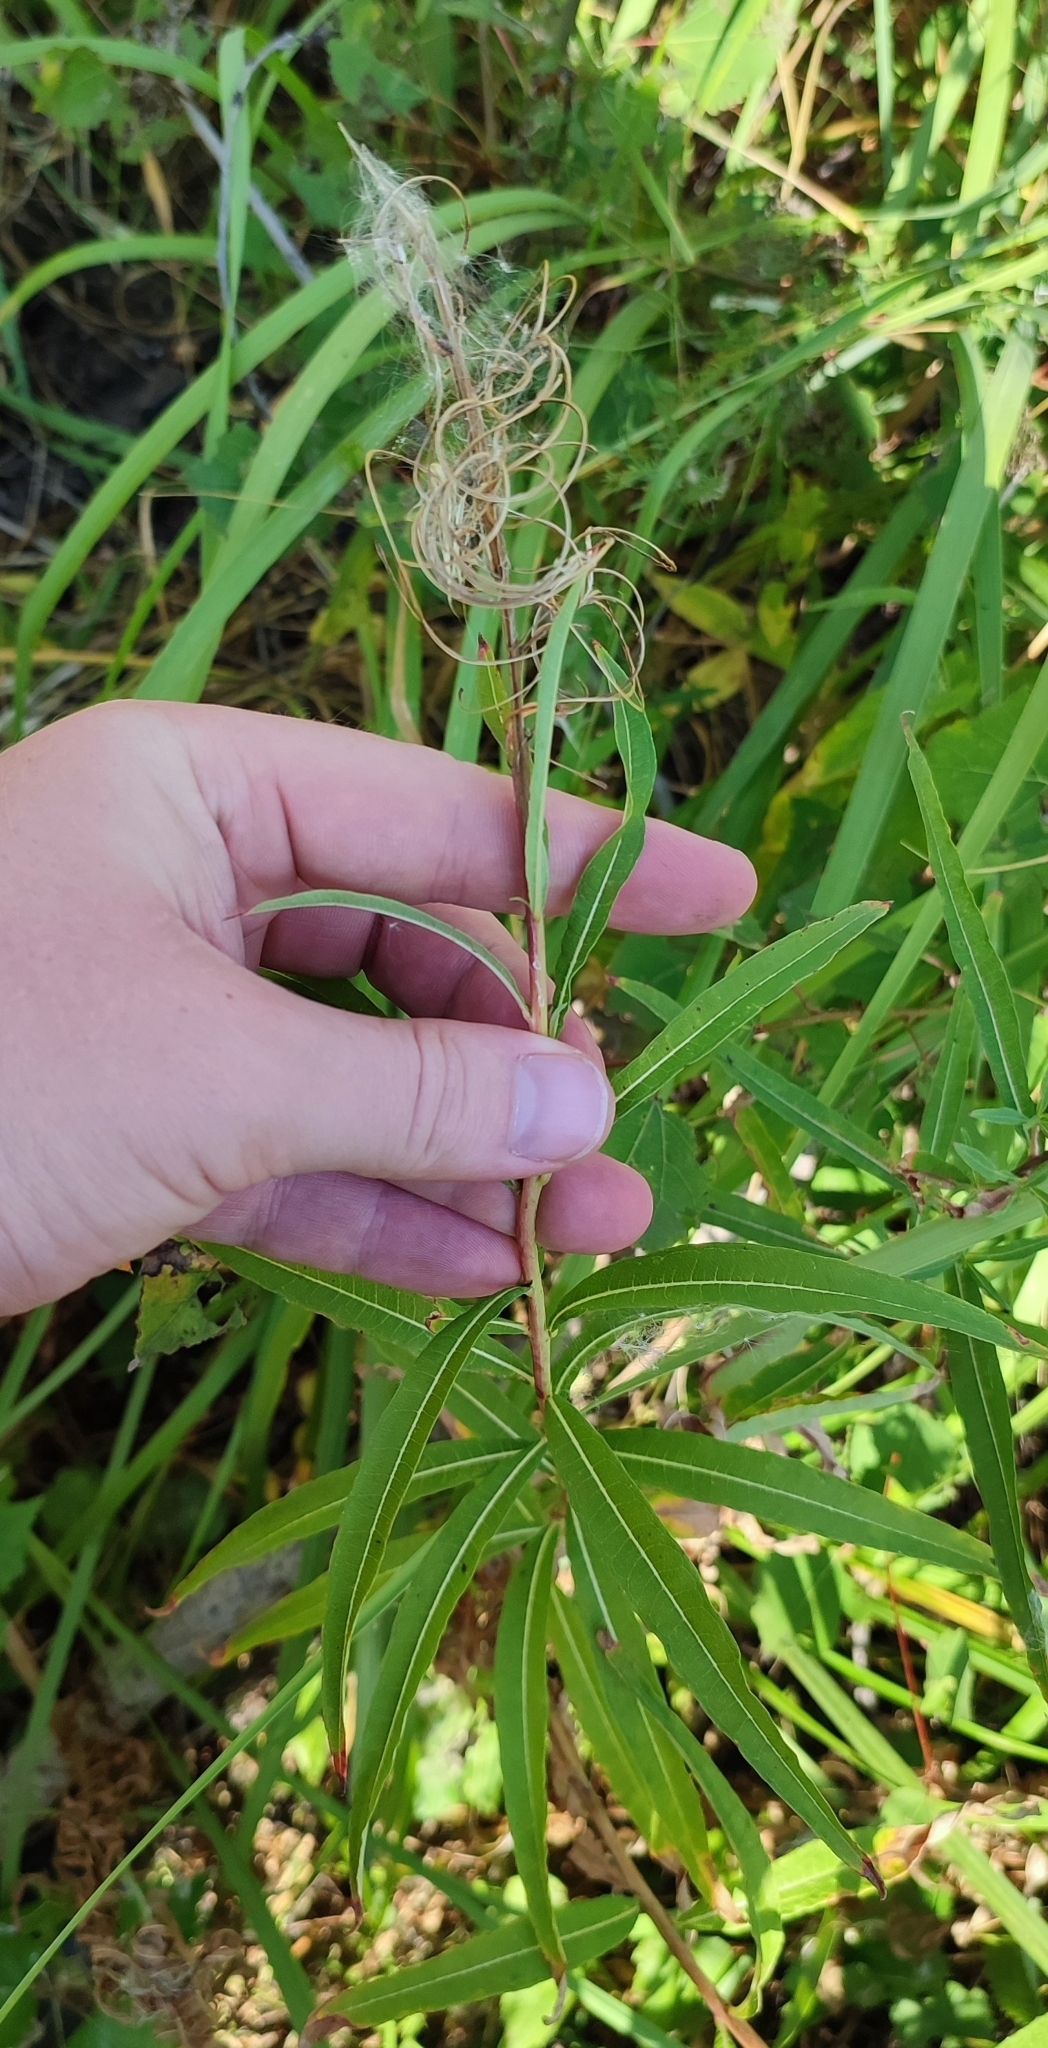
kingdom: Plantae
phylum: Tracheophyta
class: Magnoliopsida
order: Myrtales
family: Onagraceae
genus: Chamaenerion
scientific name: Chamaenerion angustifolium
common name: Fireweed
